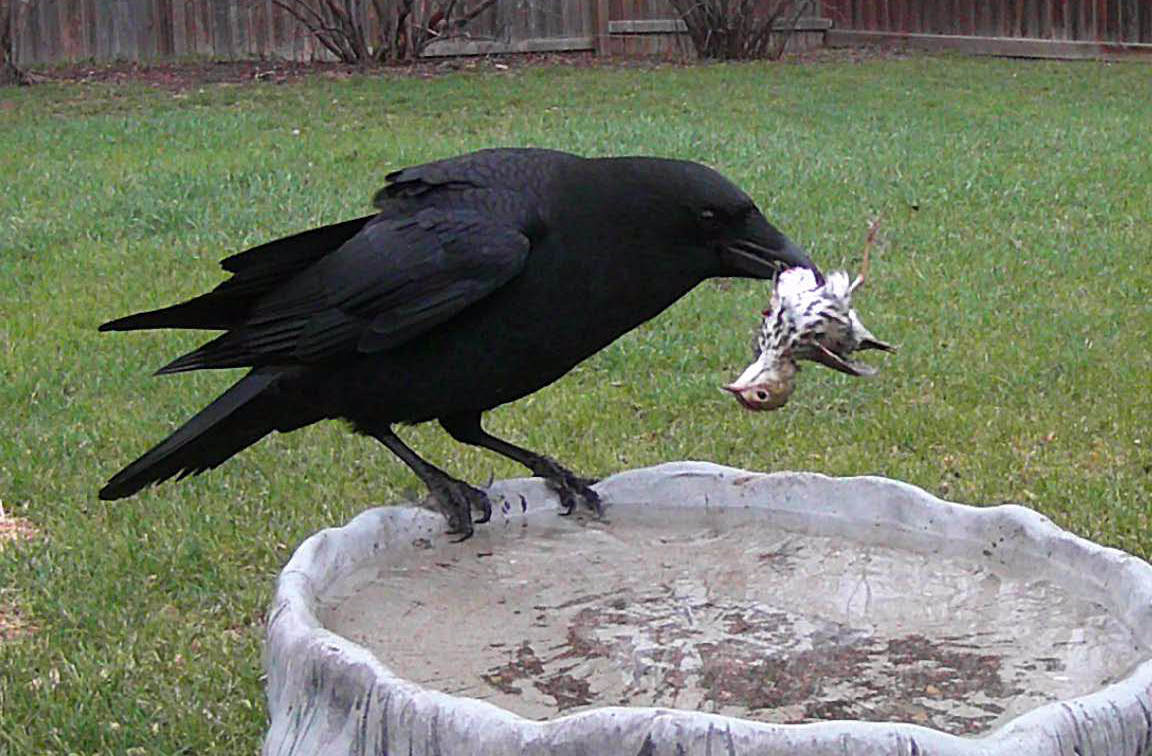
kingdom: Animalia
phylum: Chordata
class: Aves
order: Passeriformes
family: Corvidae
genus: Corvus
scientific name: Corvus brachyrhynchos
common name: American crow
